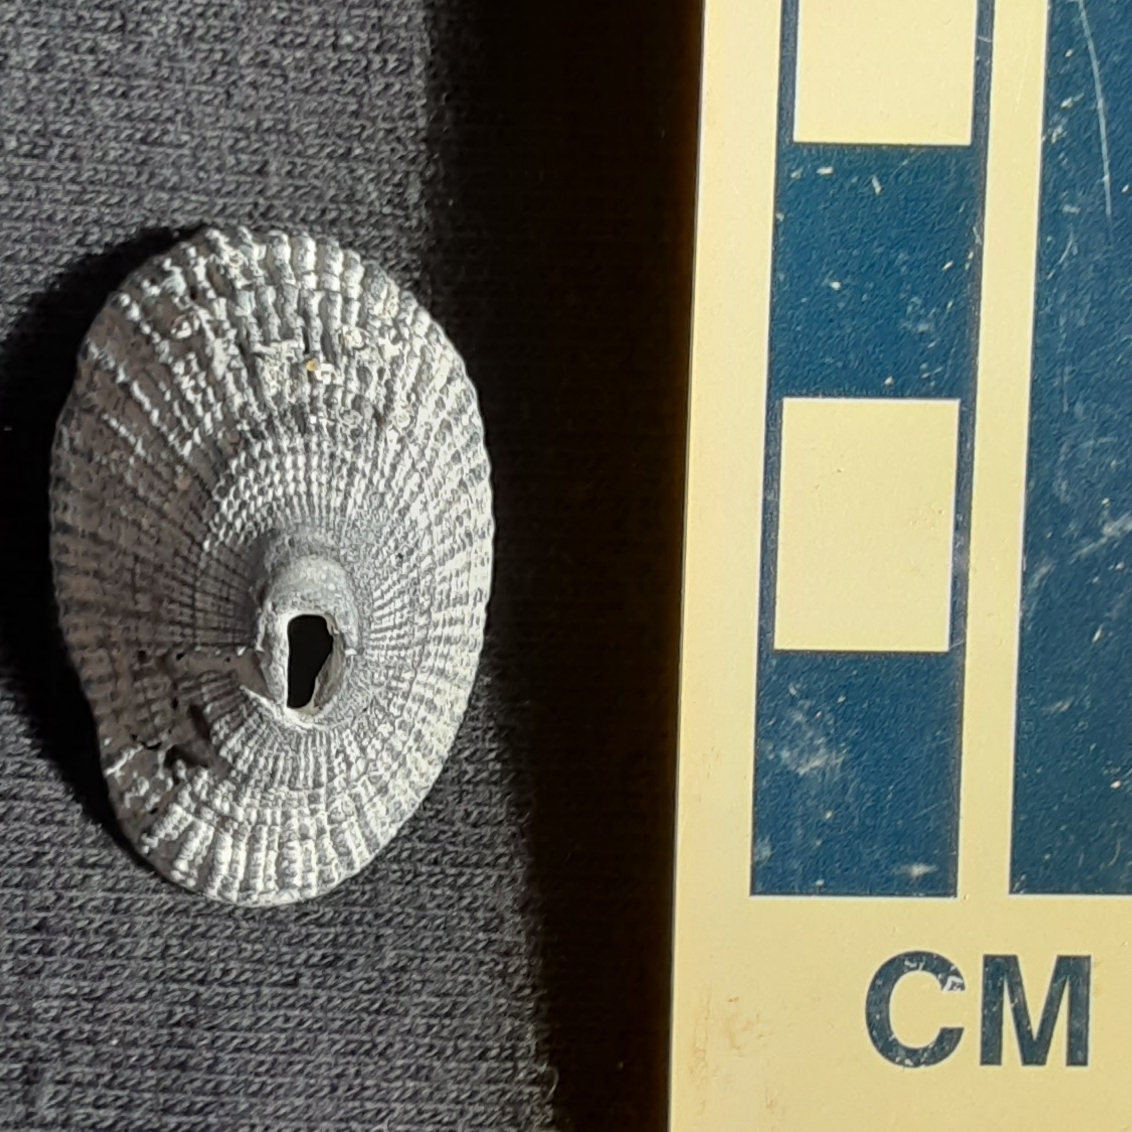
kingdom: Animalia
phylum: Mollusca
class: Gastropoda
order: Lepetellida
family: Fissurellidae
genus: Diodora
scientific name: Diodora cayenensis
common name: Cayenne keyhole limpet
